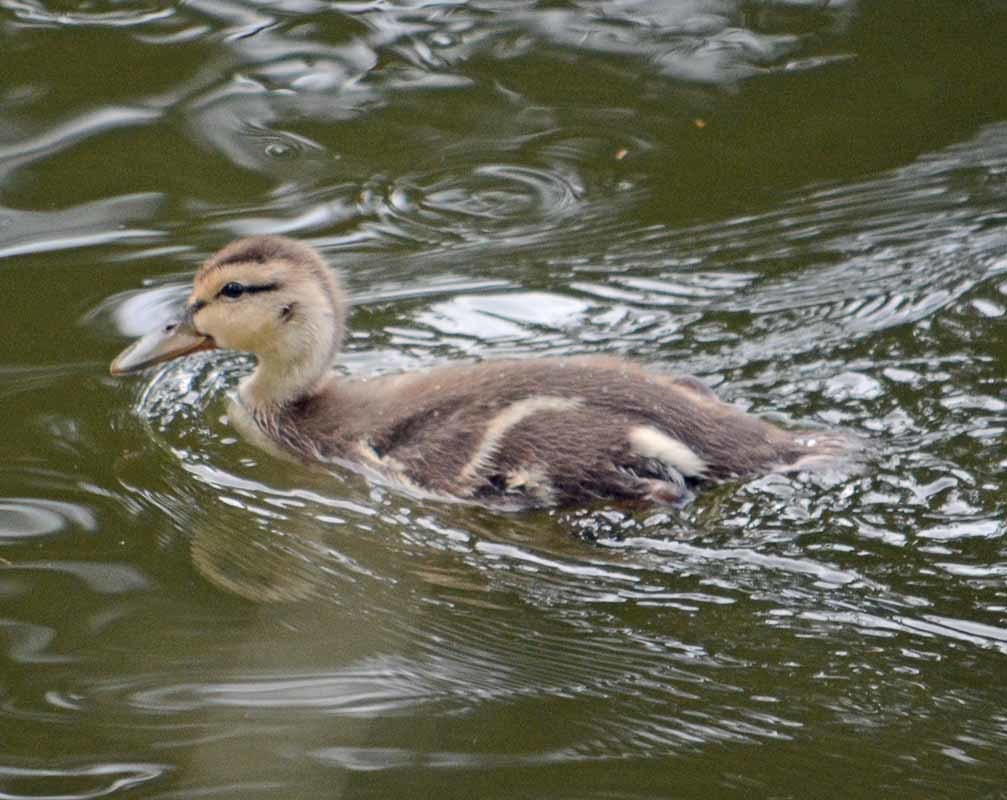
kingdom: Animalia
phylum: Chordata
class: Aves
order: Anseriformes
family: Anatidae
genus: Anas
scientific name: Anas diazi
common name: Mexican duck
